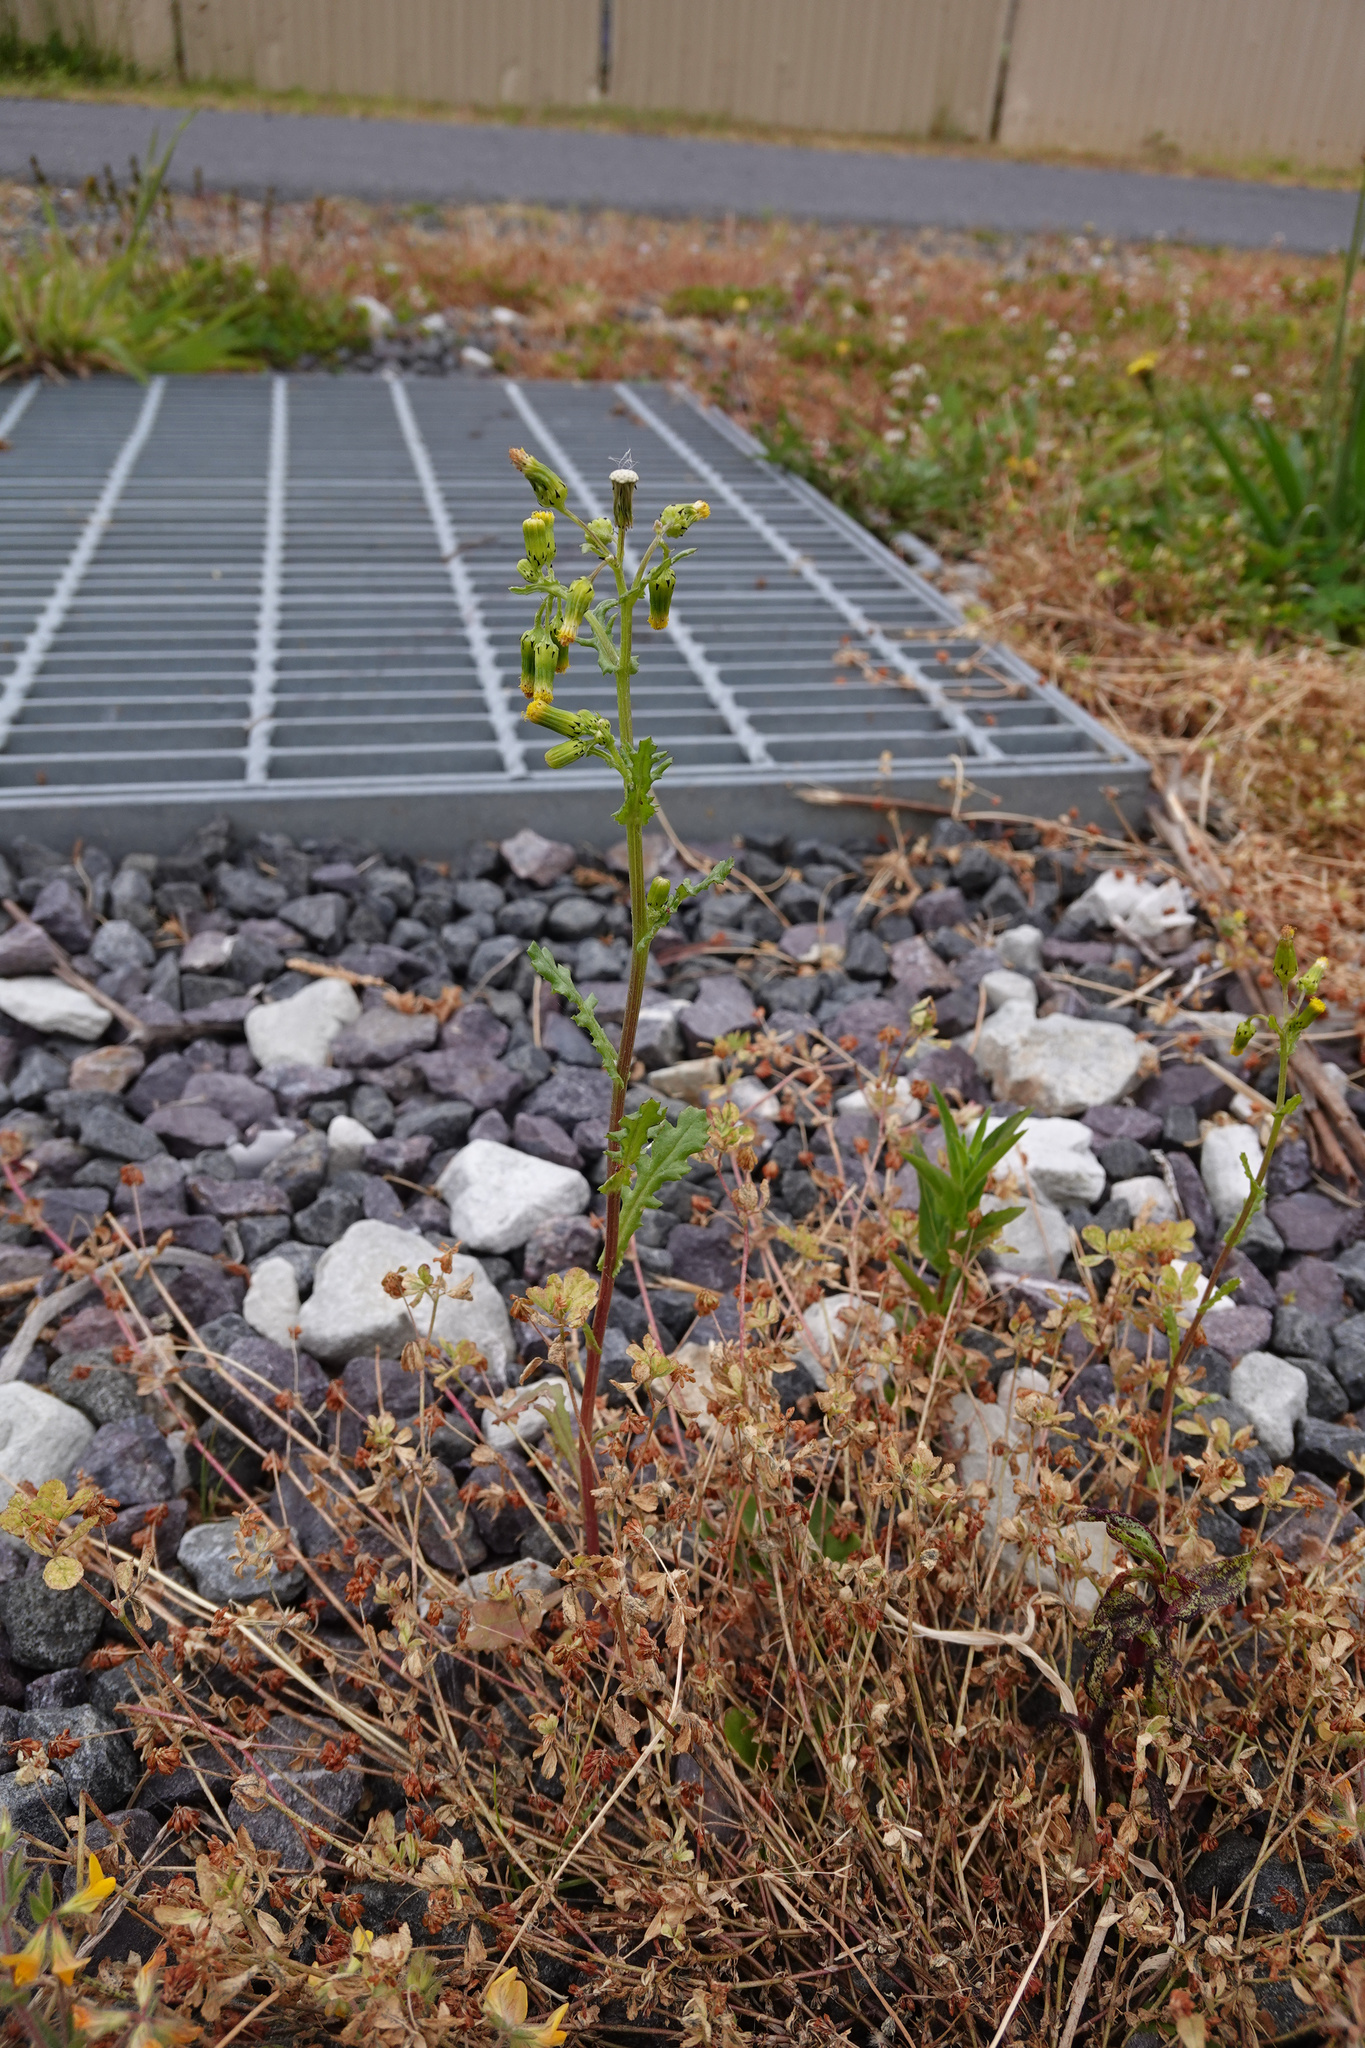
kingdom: Plantae
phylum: Tracheophyta
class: Magnoliopsida
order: Asterales
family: Asteraceae
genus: Senecio
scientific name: Senecio vulgaris
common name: Old-man-in-the-spring
